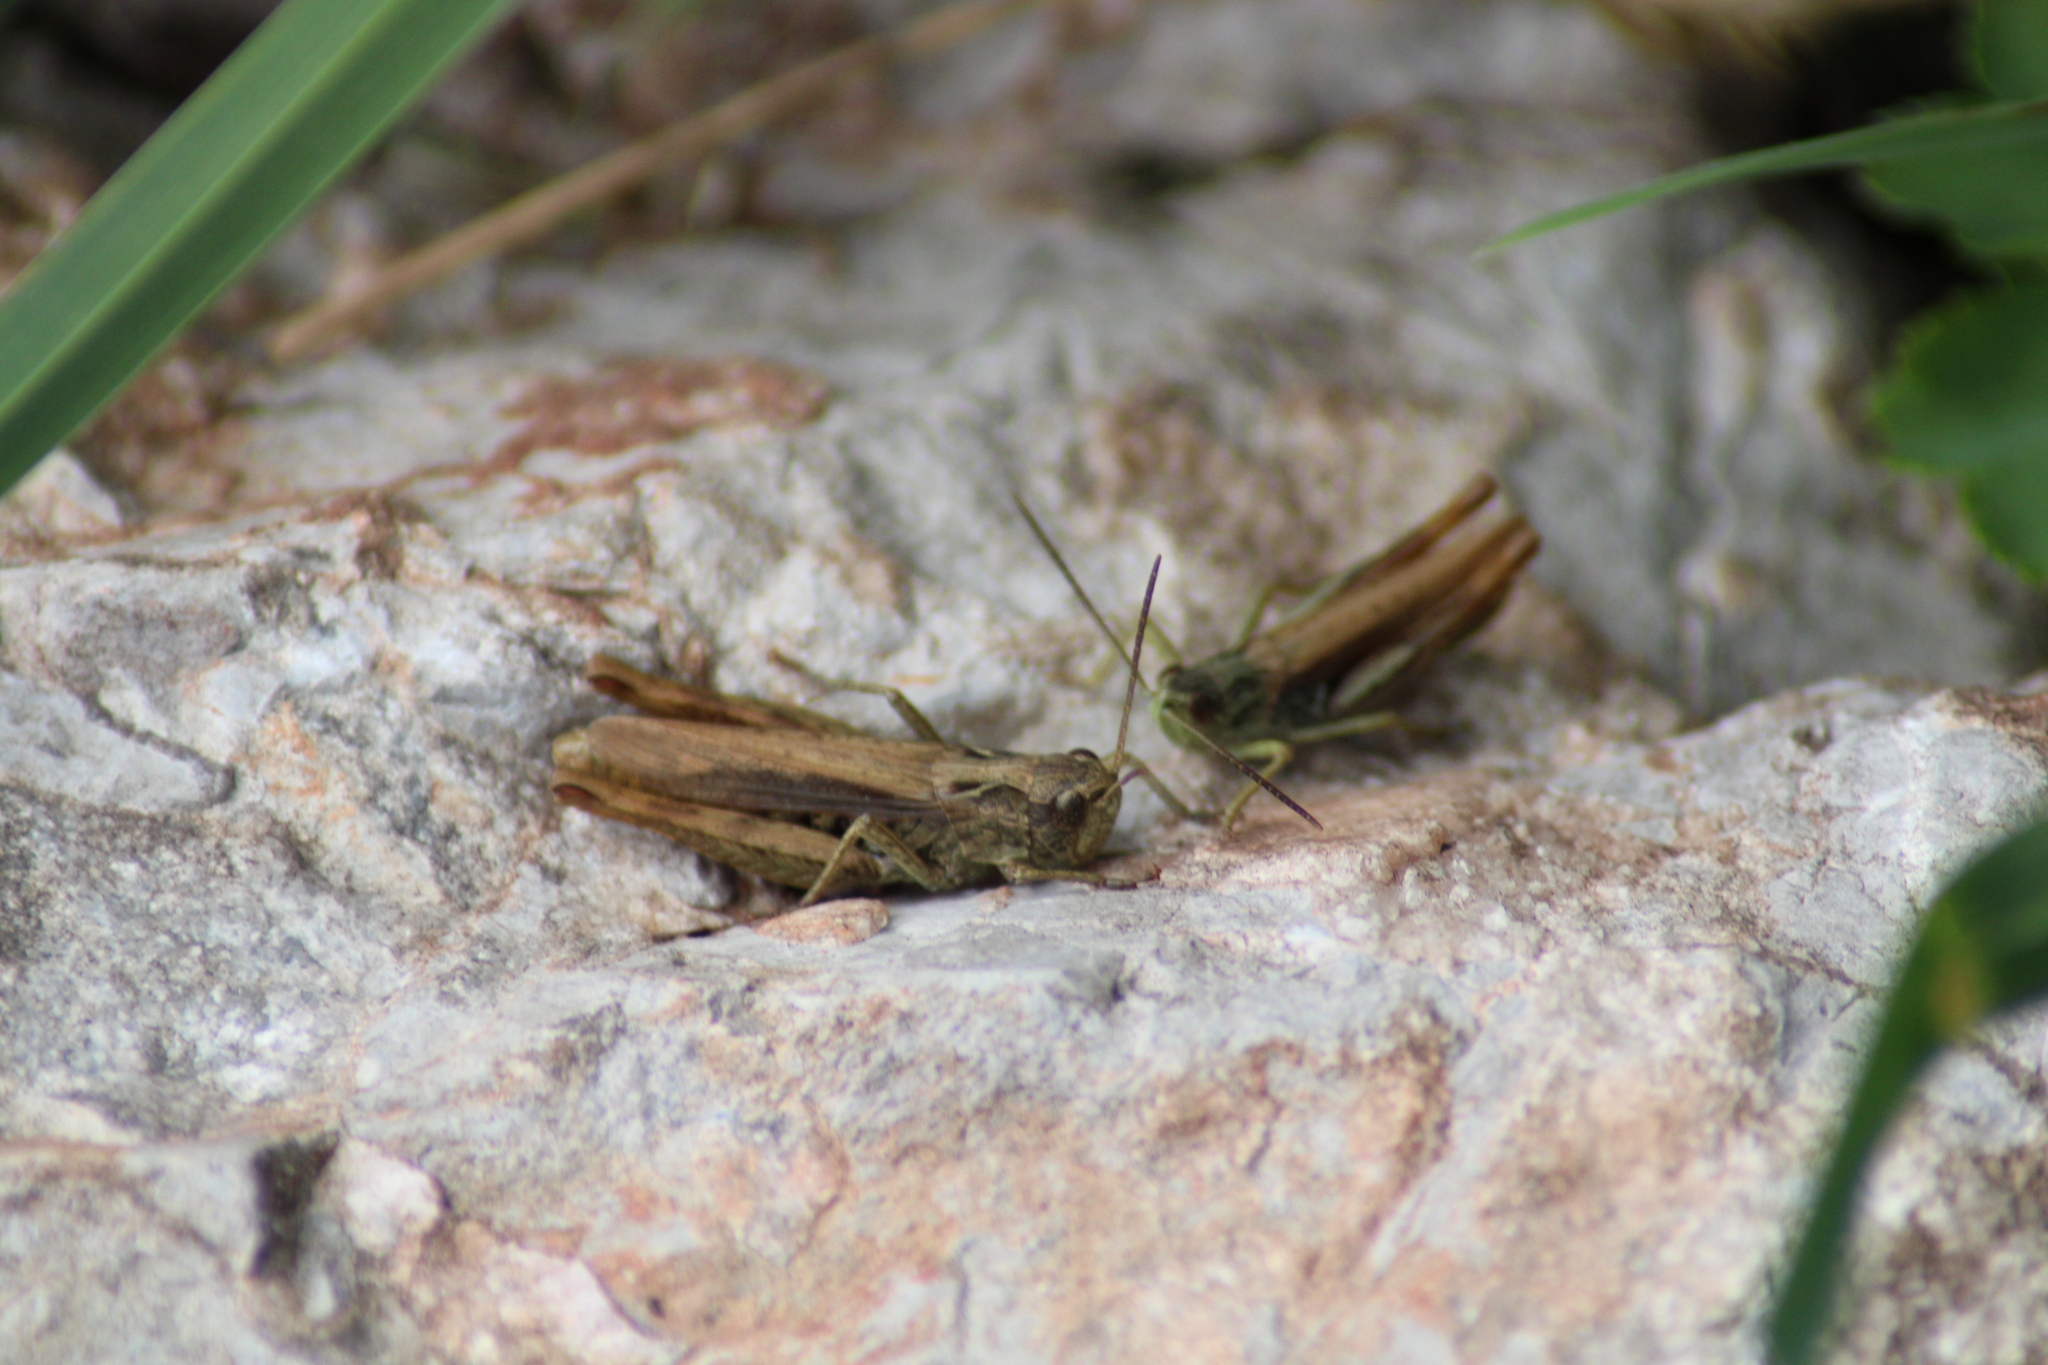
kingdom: Animalia
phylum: Arthropoda
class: Insecta
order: Orthoptera
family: Acrididae
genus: Chorthippus
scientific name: Chorthippus apricarius
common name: Upland field grasshopper
